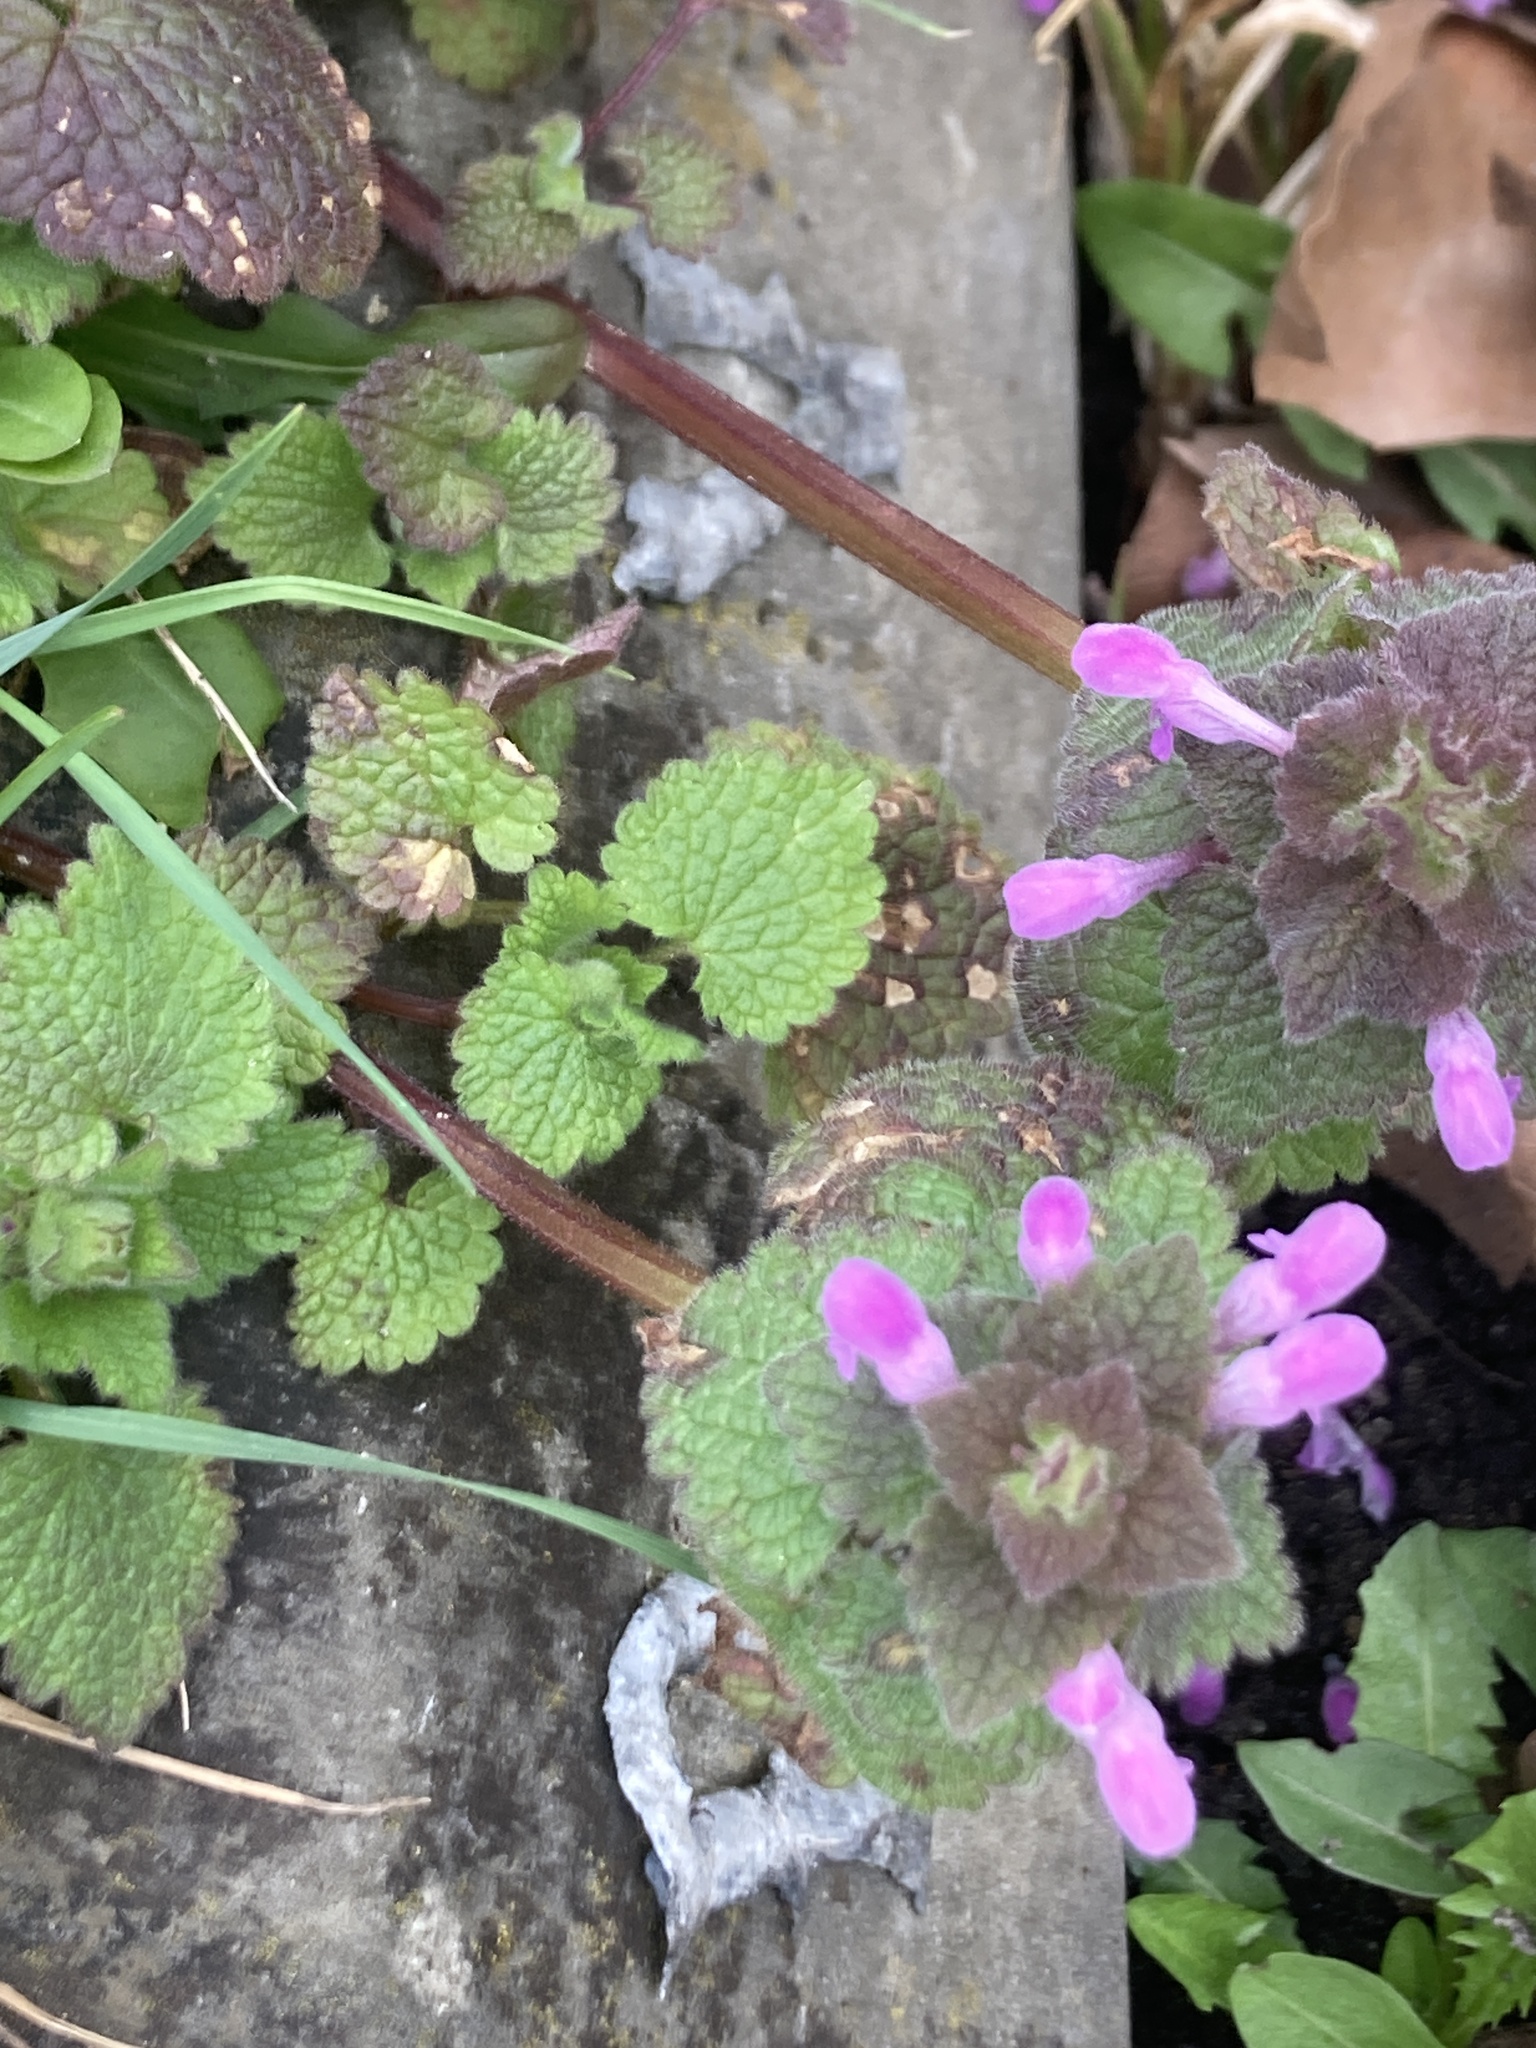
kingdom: Plantae
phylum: Tracheophyta
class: Magnoliopsida
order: Lamiales
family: Lamiaceae
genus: Lamium
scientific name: Lamium purpureum
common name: Red dead-nettle
